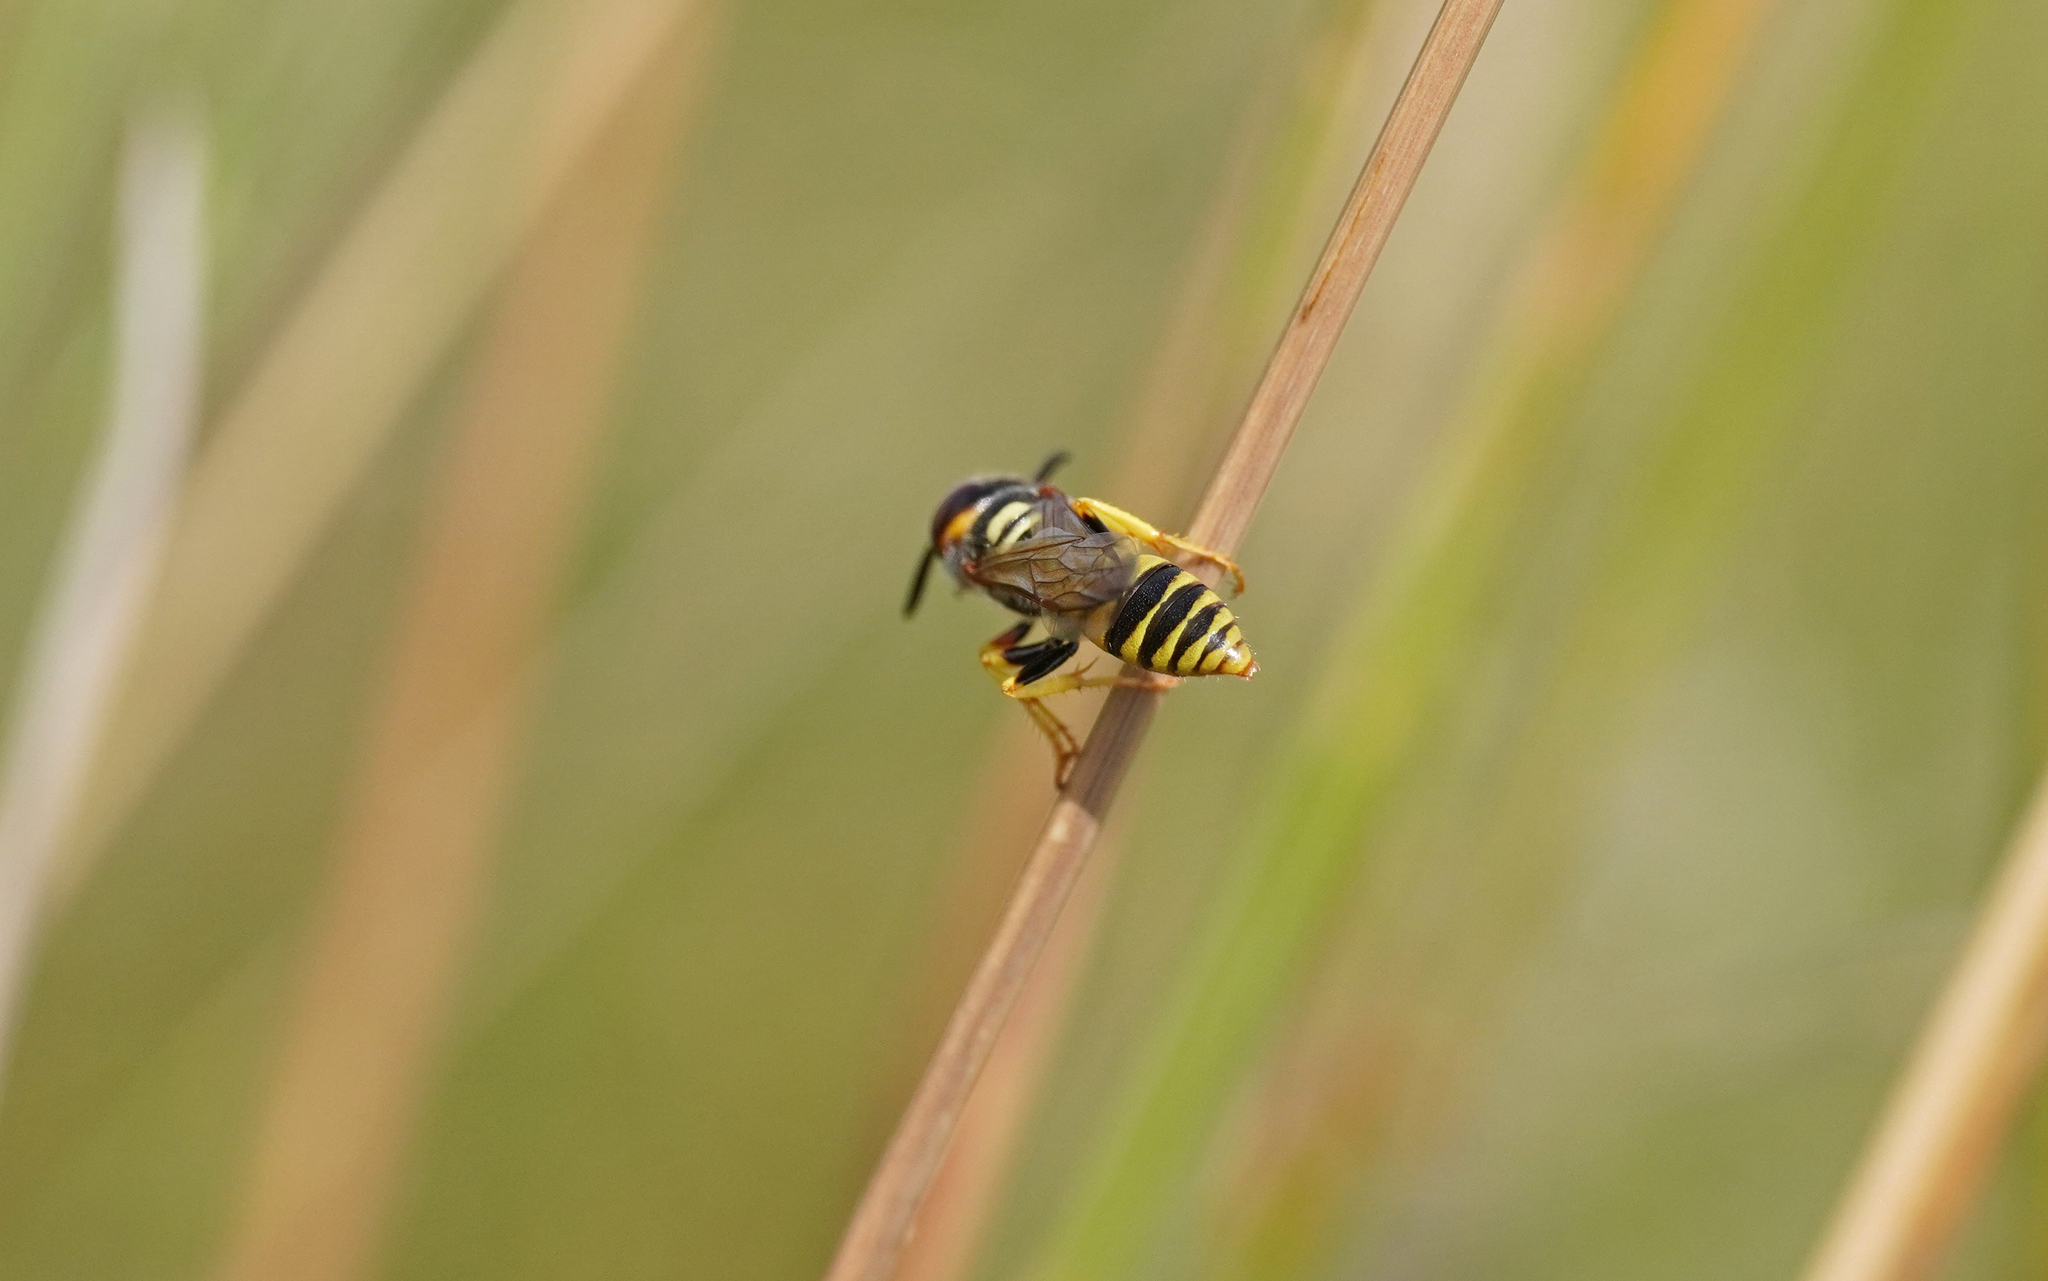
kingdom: Animalia
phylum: Arthropoda
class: Insecta
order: Hymenoptera
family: Crabronidae
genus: Philanthus
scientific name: Philanthus triangulum
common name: Bee wolf
